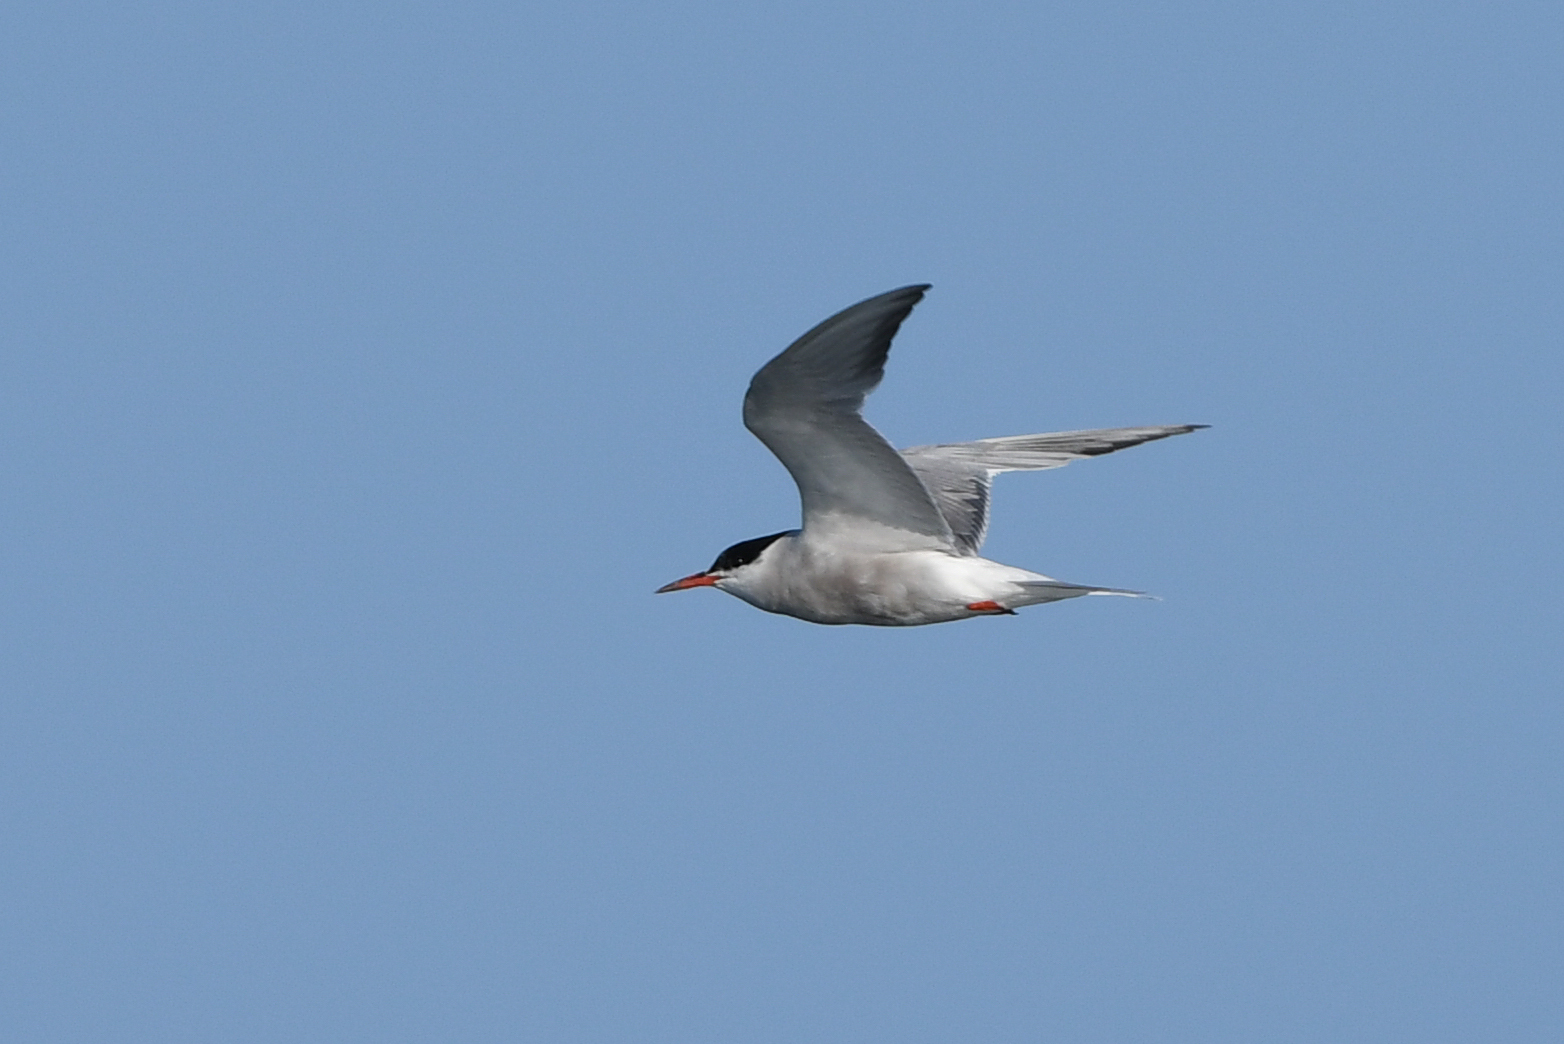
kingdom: Animalia
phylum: Chordata
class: Aves
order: Charadriiformes
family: Laridae
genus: Sterna
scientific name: Sterna hirundo
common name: Common tern
